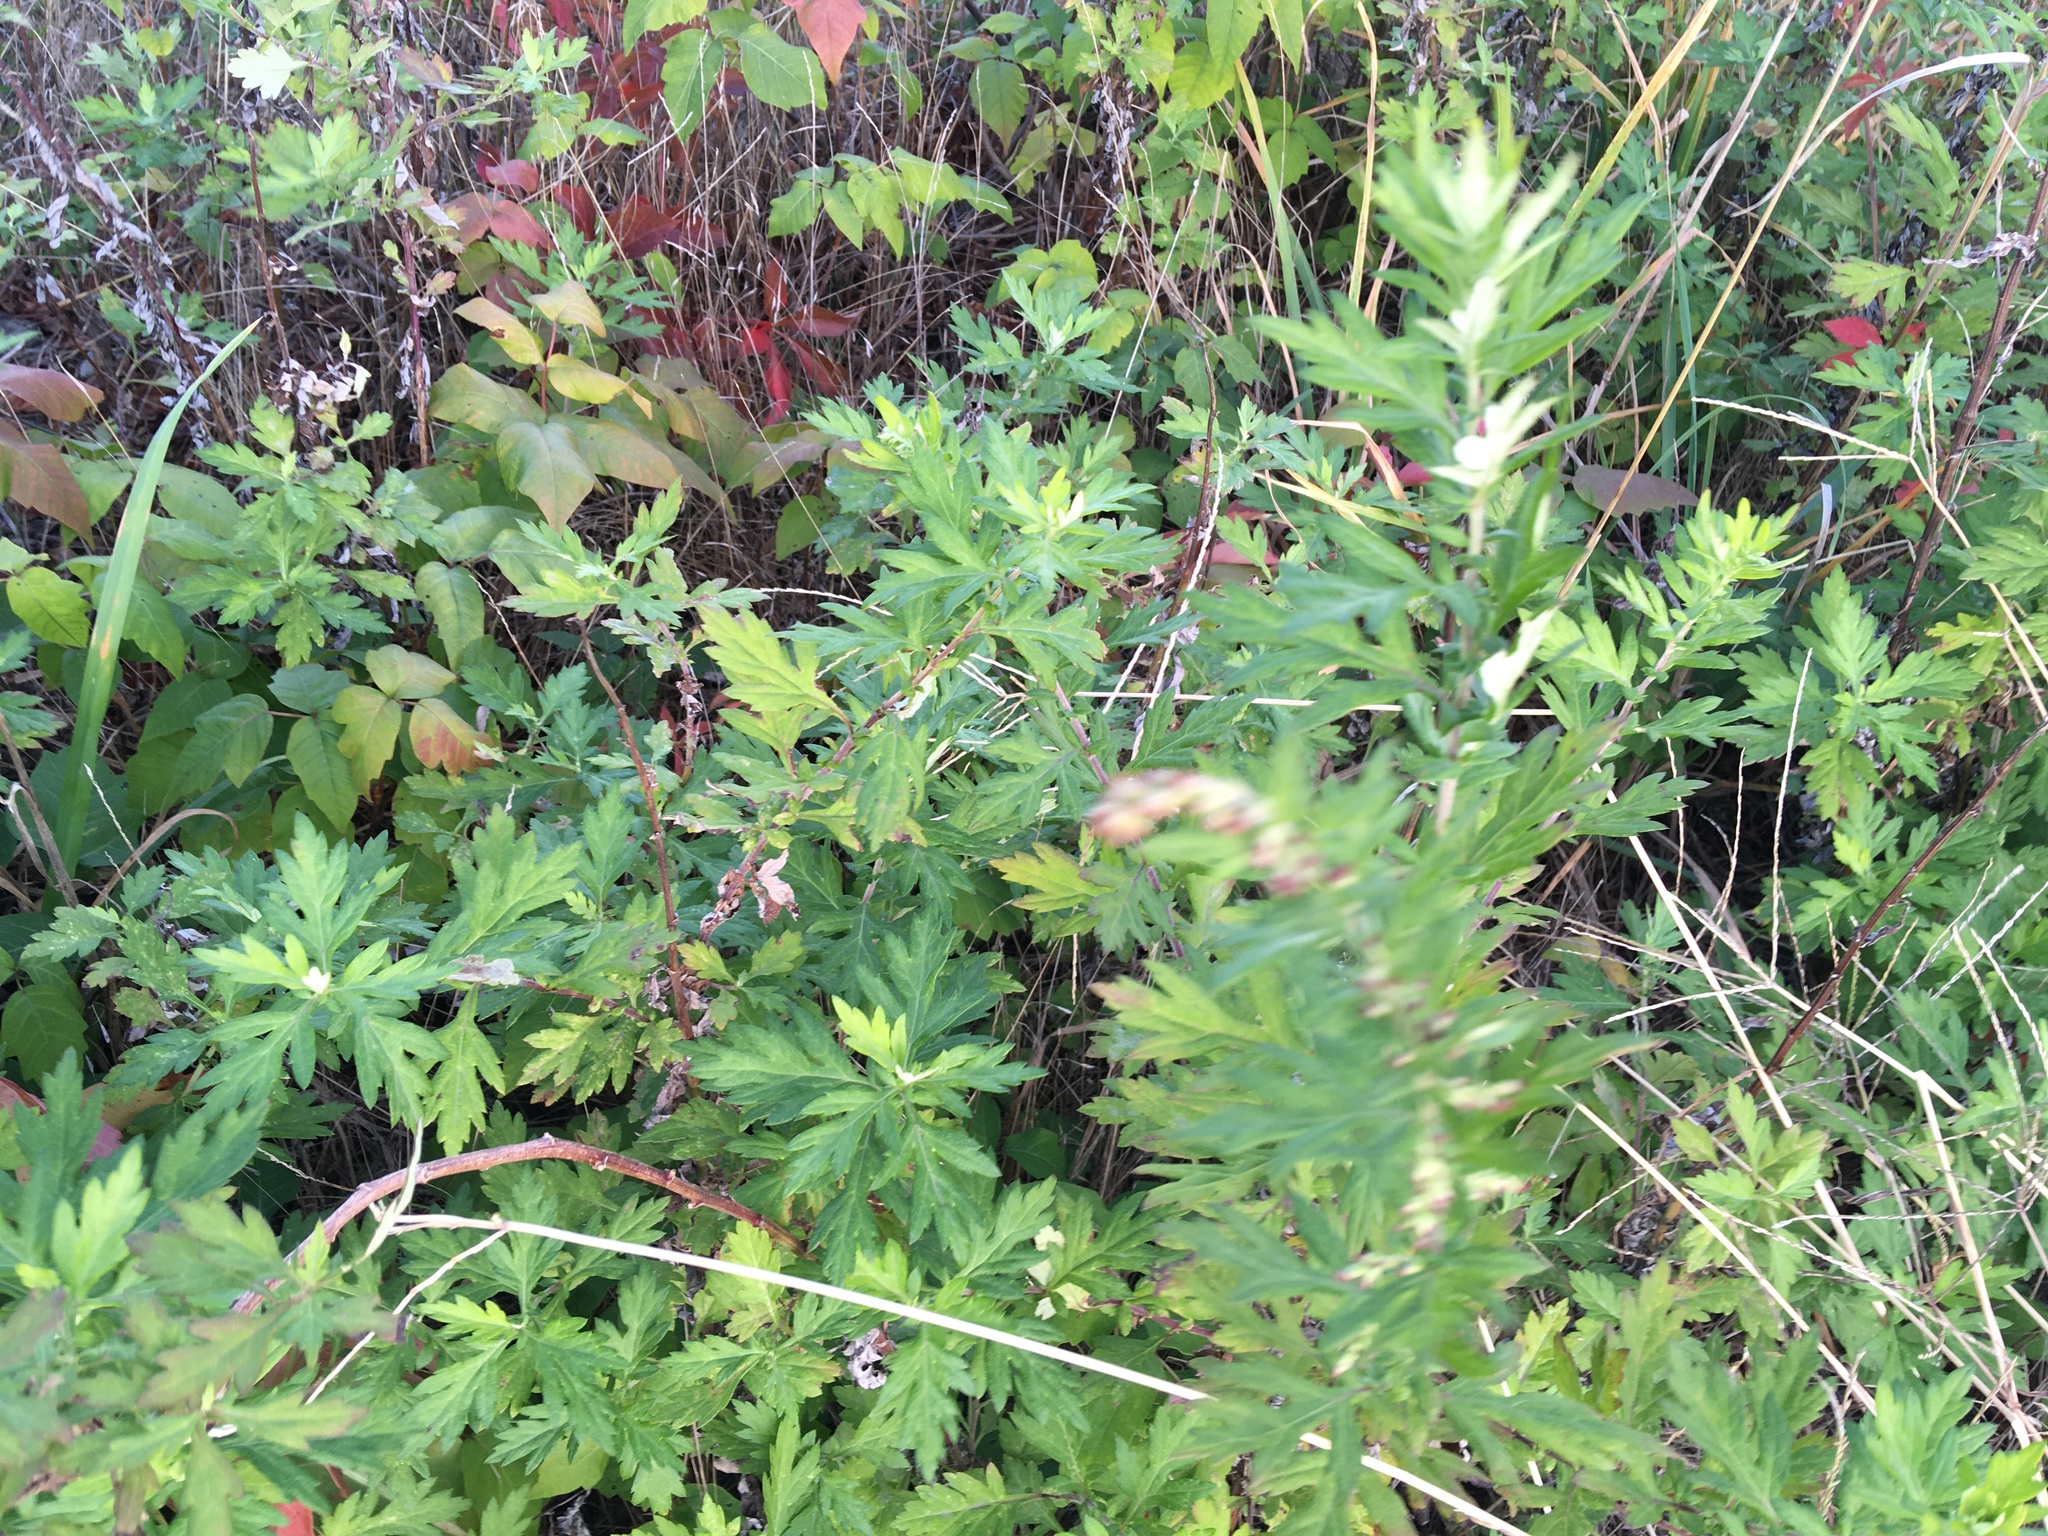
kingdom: Plantae
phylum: Tracheophyta
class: Magnoliopsida
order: Asterales
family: Asteraceae
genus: Artemisia
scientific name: Artemisia vulgaris
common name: Mugwort
